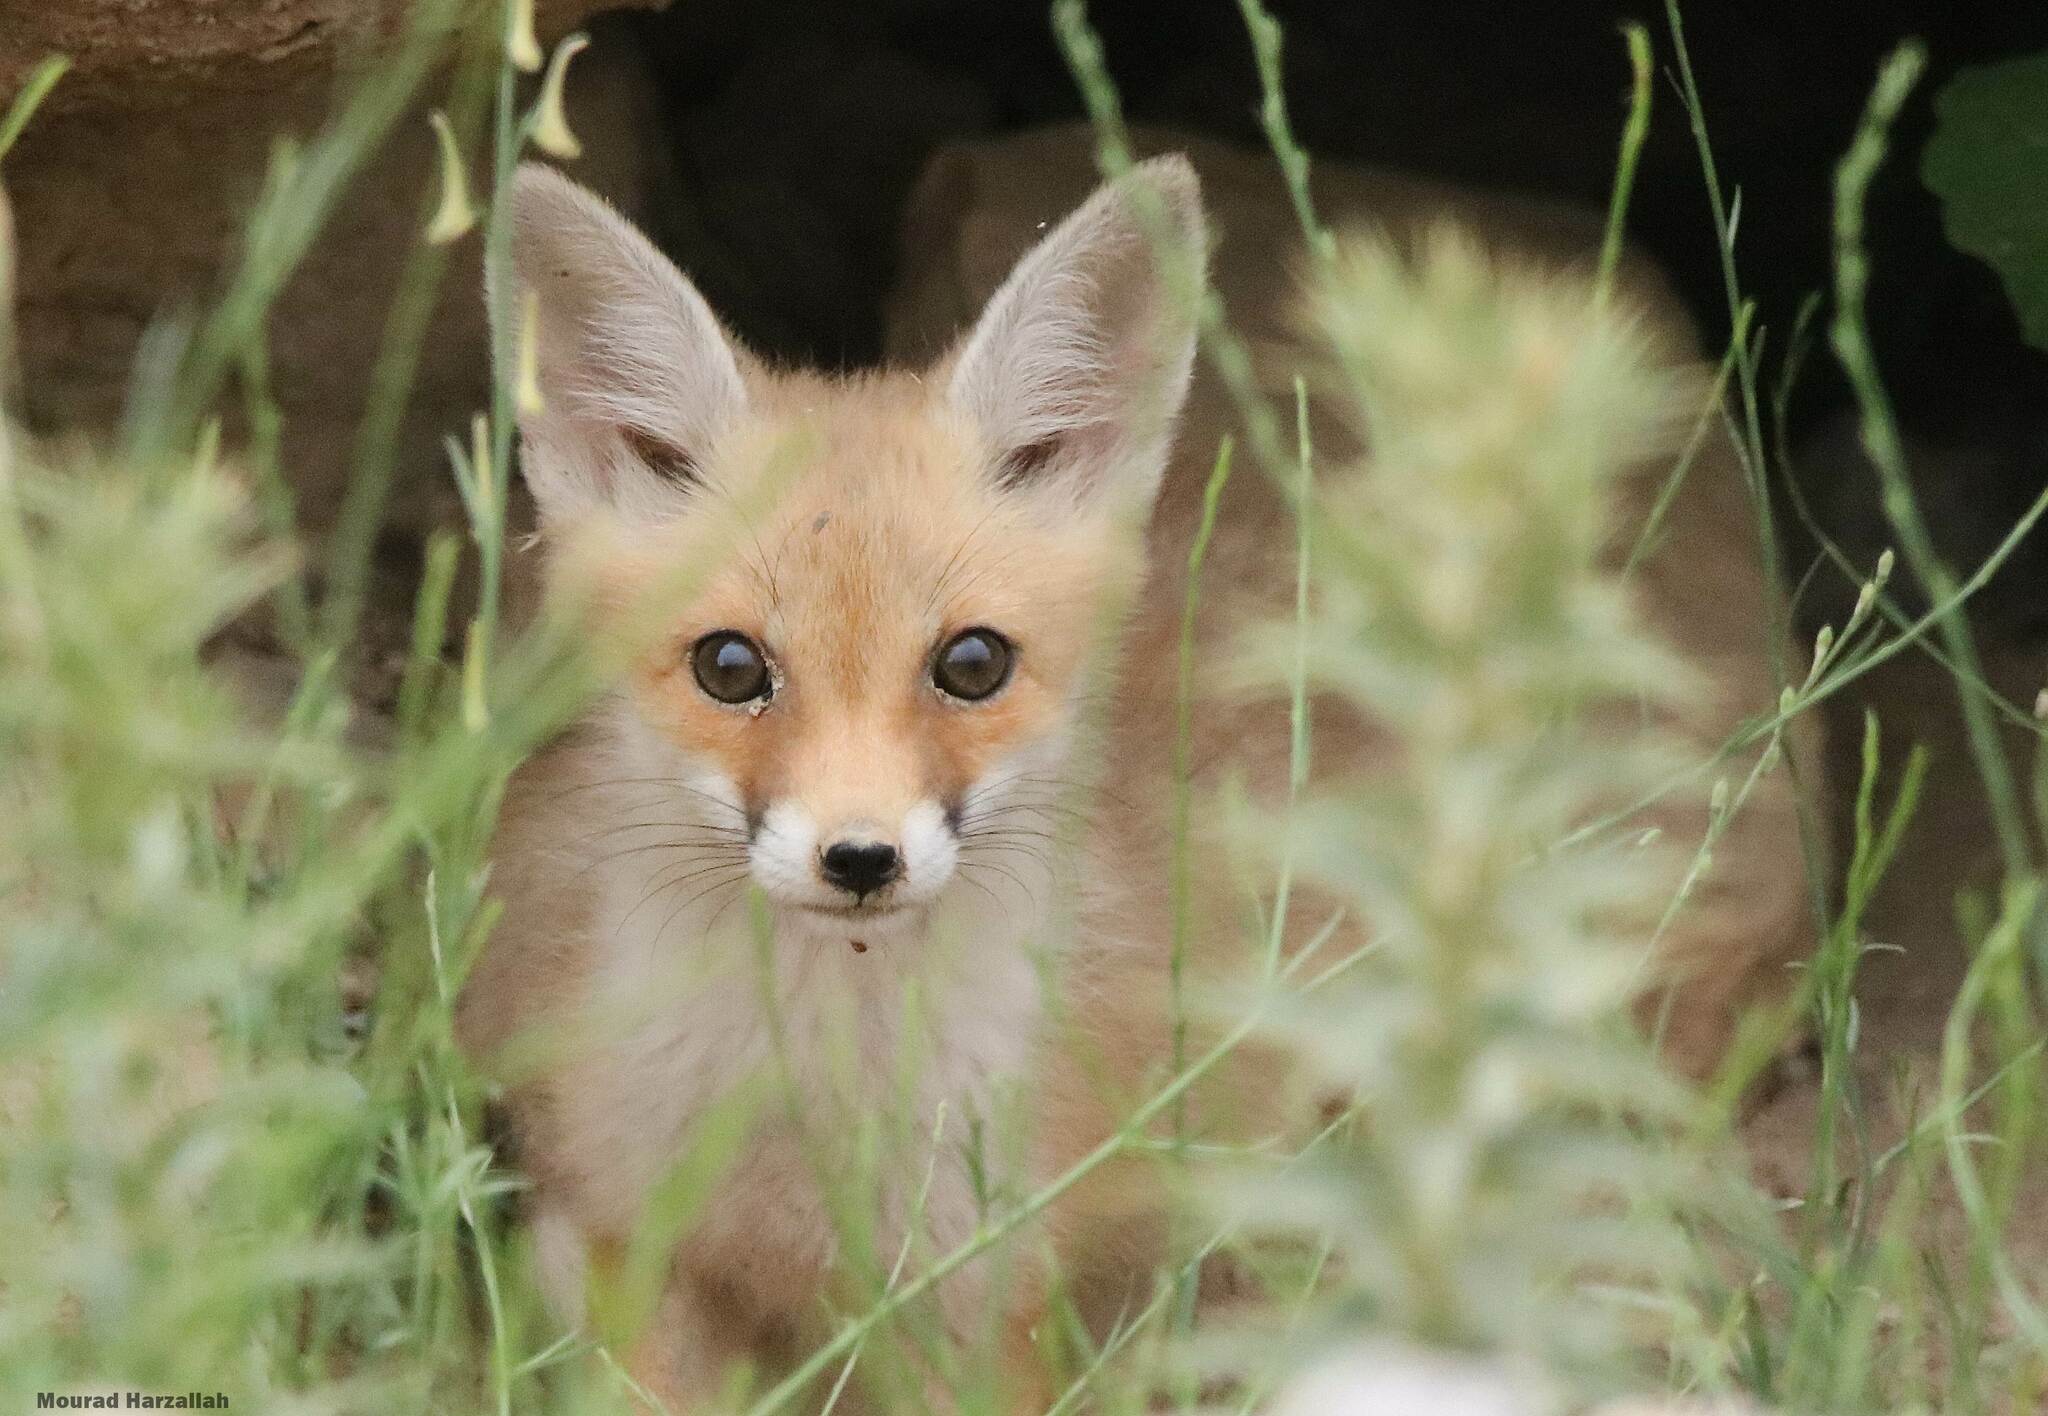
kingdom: Animalia
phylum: Chordata
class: Mammalia
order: Carnivora
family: Canidae
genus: Vulpes
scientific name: Vulpes vulpes
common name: Red fox
